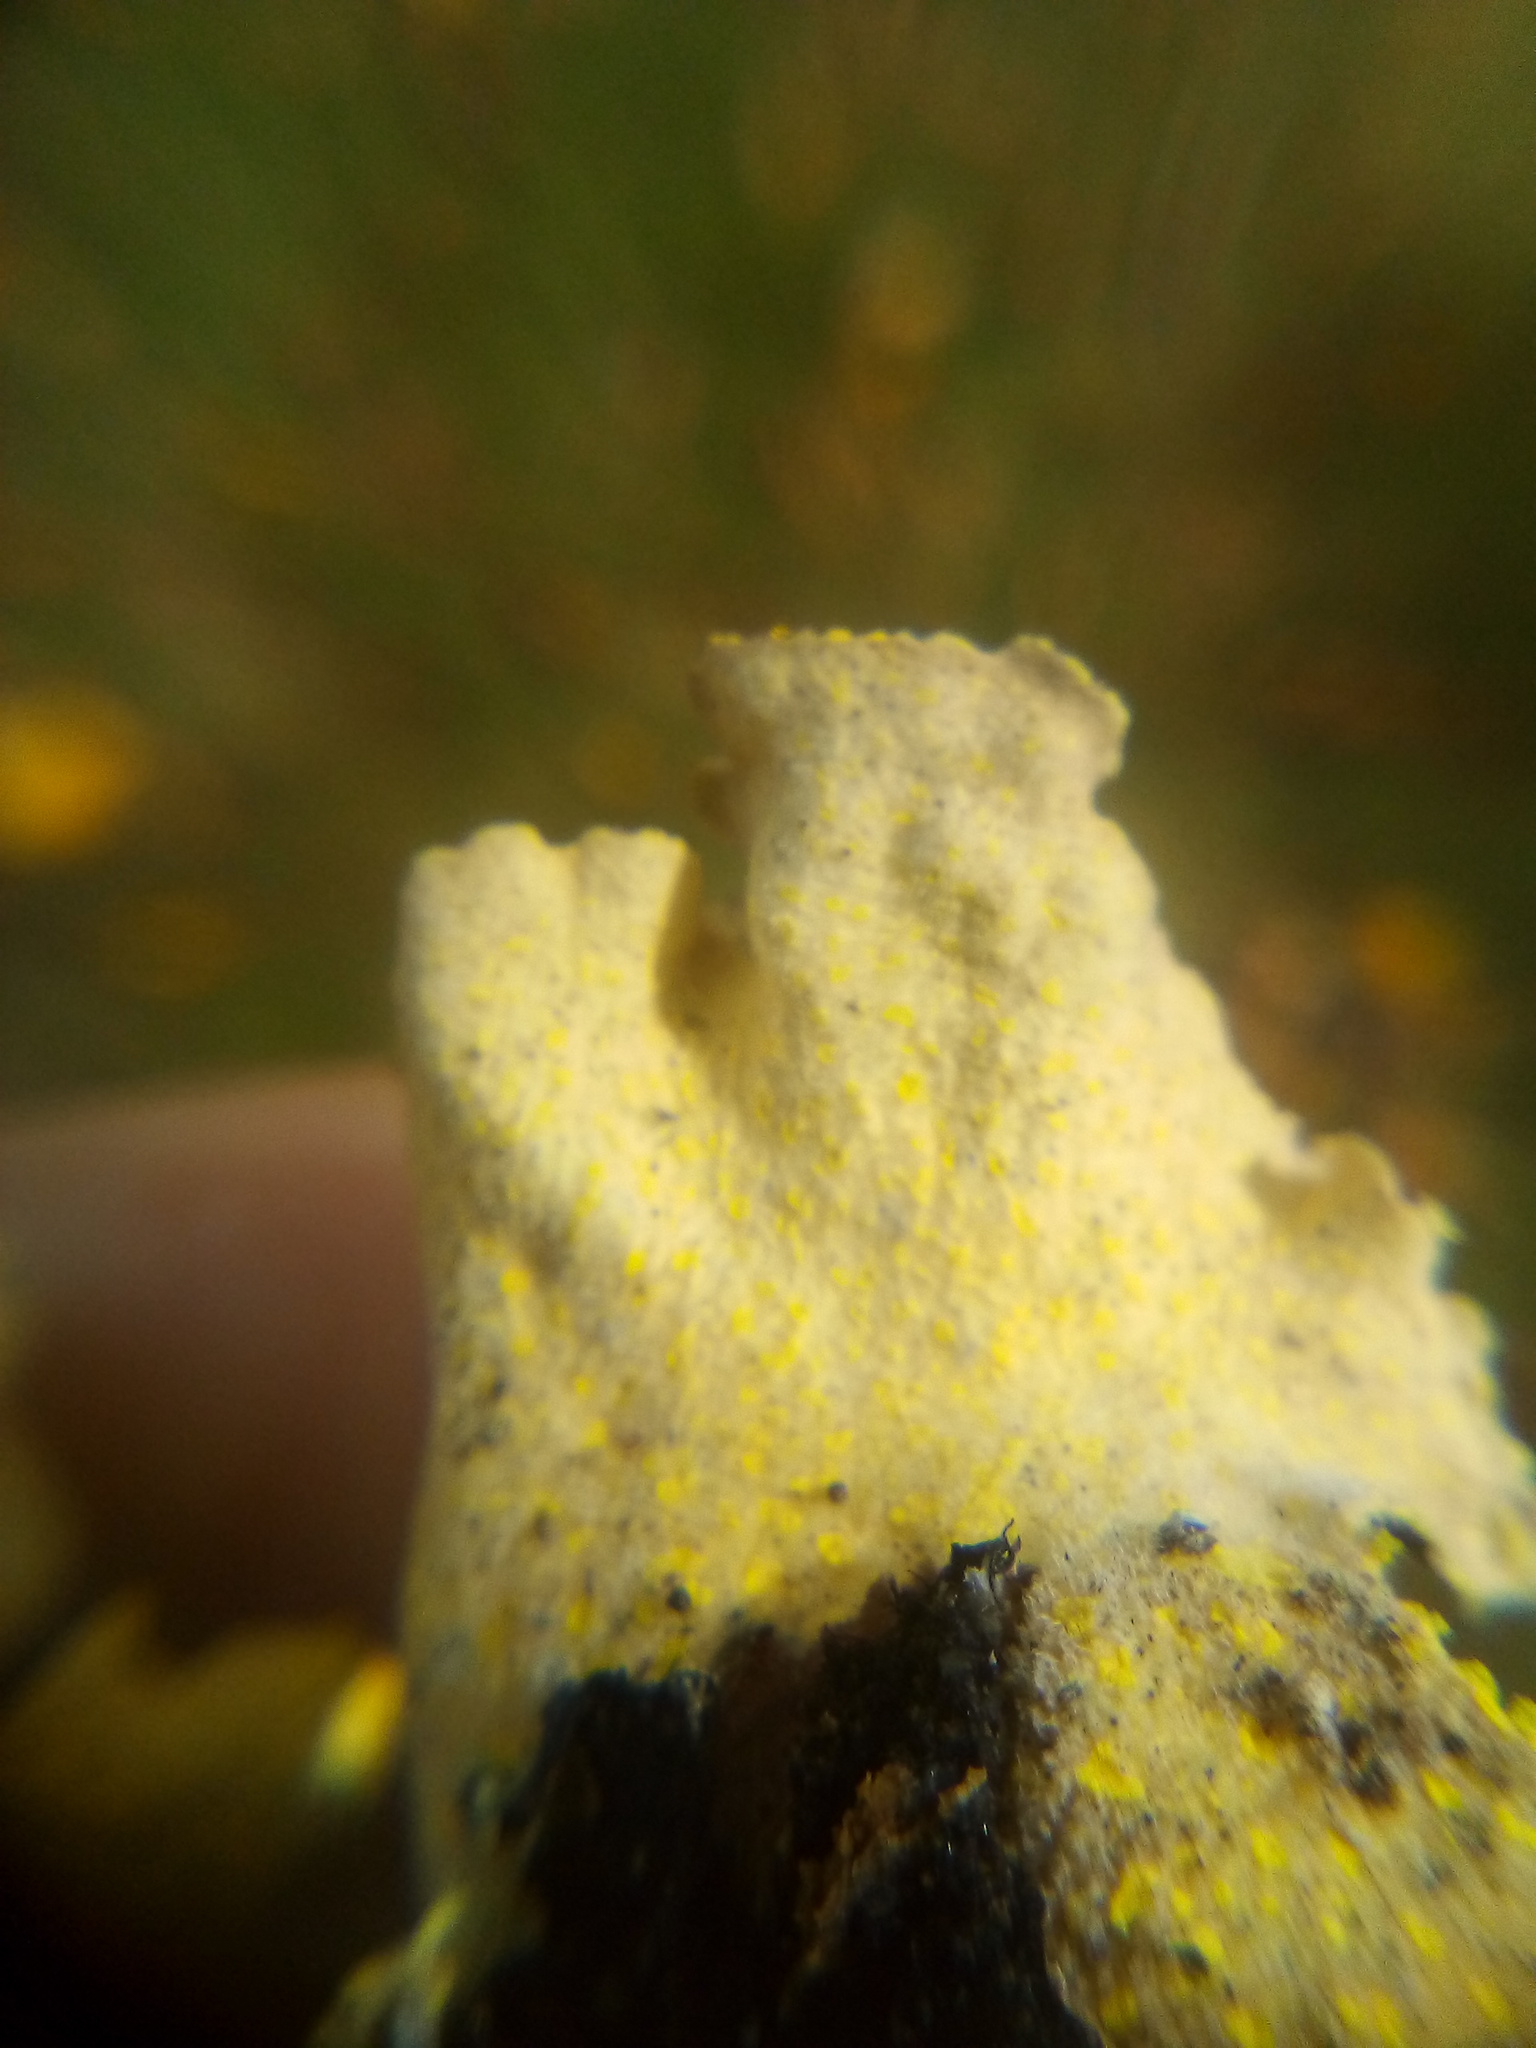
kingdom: Fungi
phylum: Ascomycota
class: Lecanoromycetes
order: Peltigerales
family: Lobariaceae
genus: Pseudocyphellaria
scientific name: Pseudocyphellaria aurata
